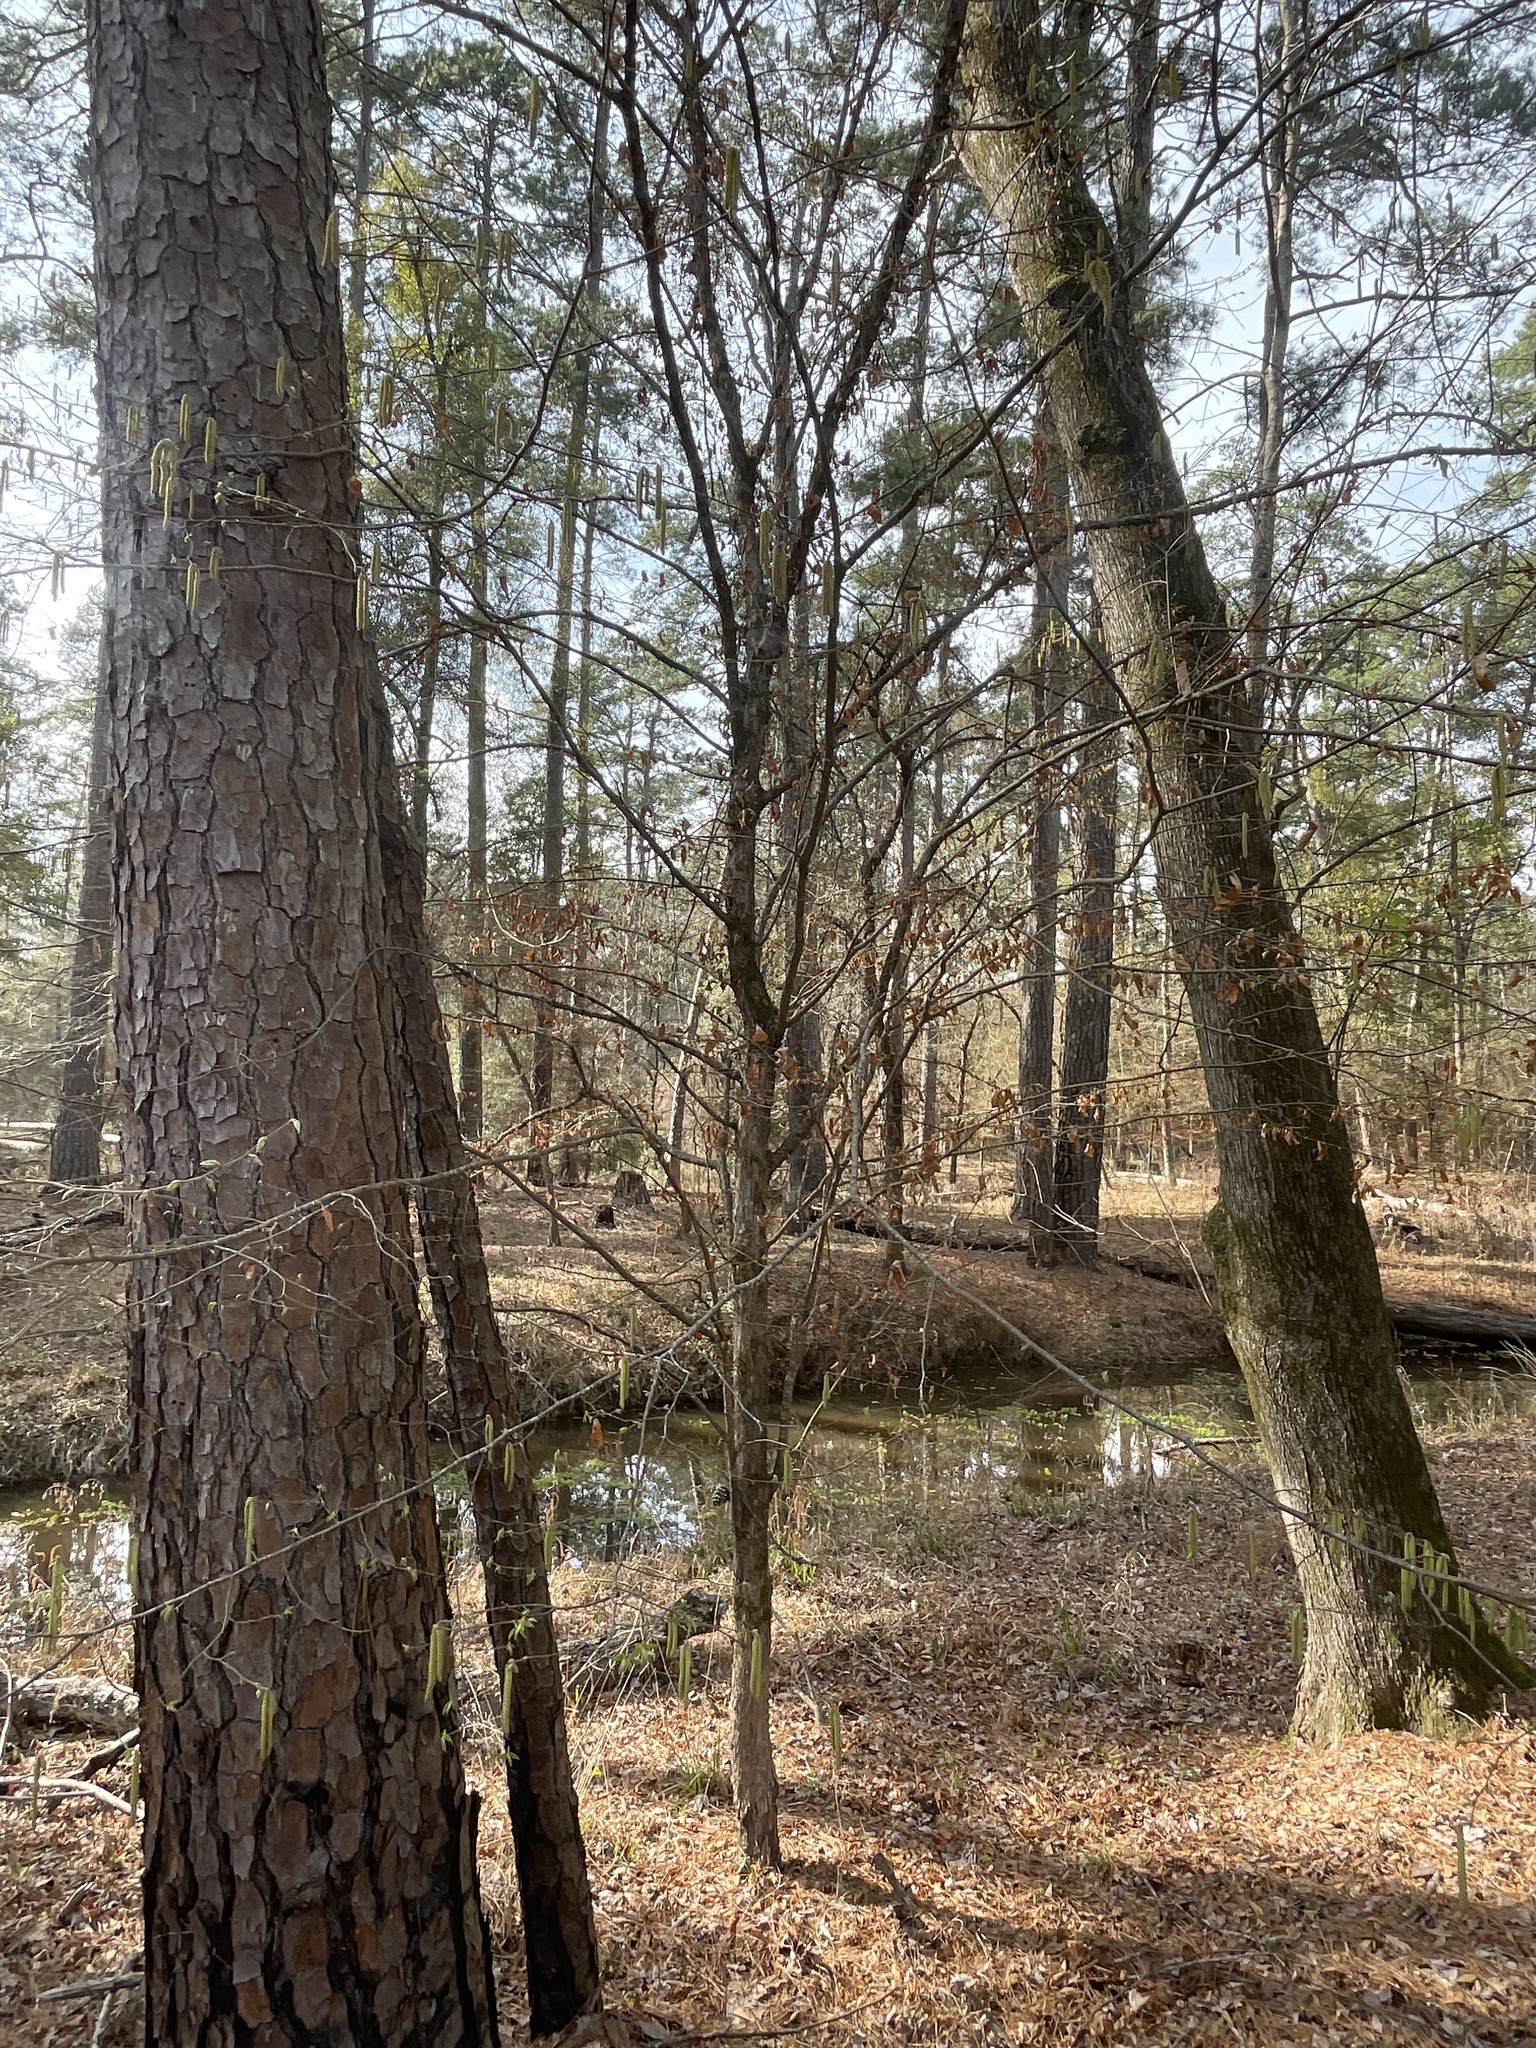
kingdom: Plantae
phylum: Tracheophyta
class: Magnoliopsida
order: Fagales
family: Betulaceae
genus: Ostrya
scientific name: Ostrya virginiana
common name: Ironwood
